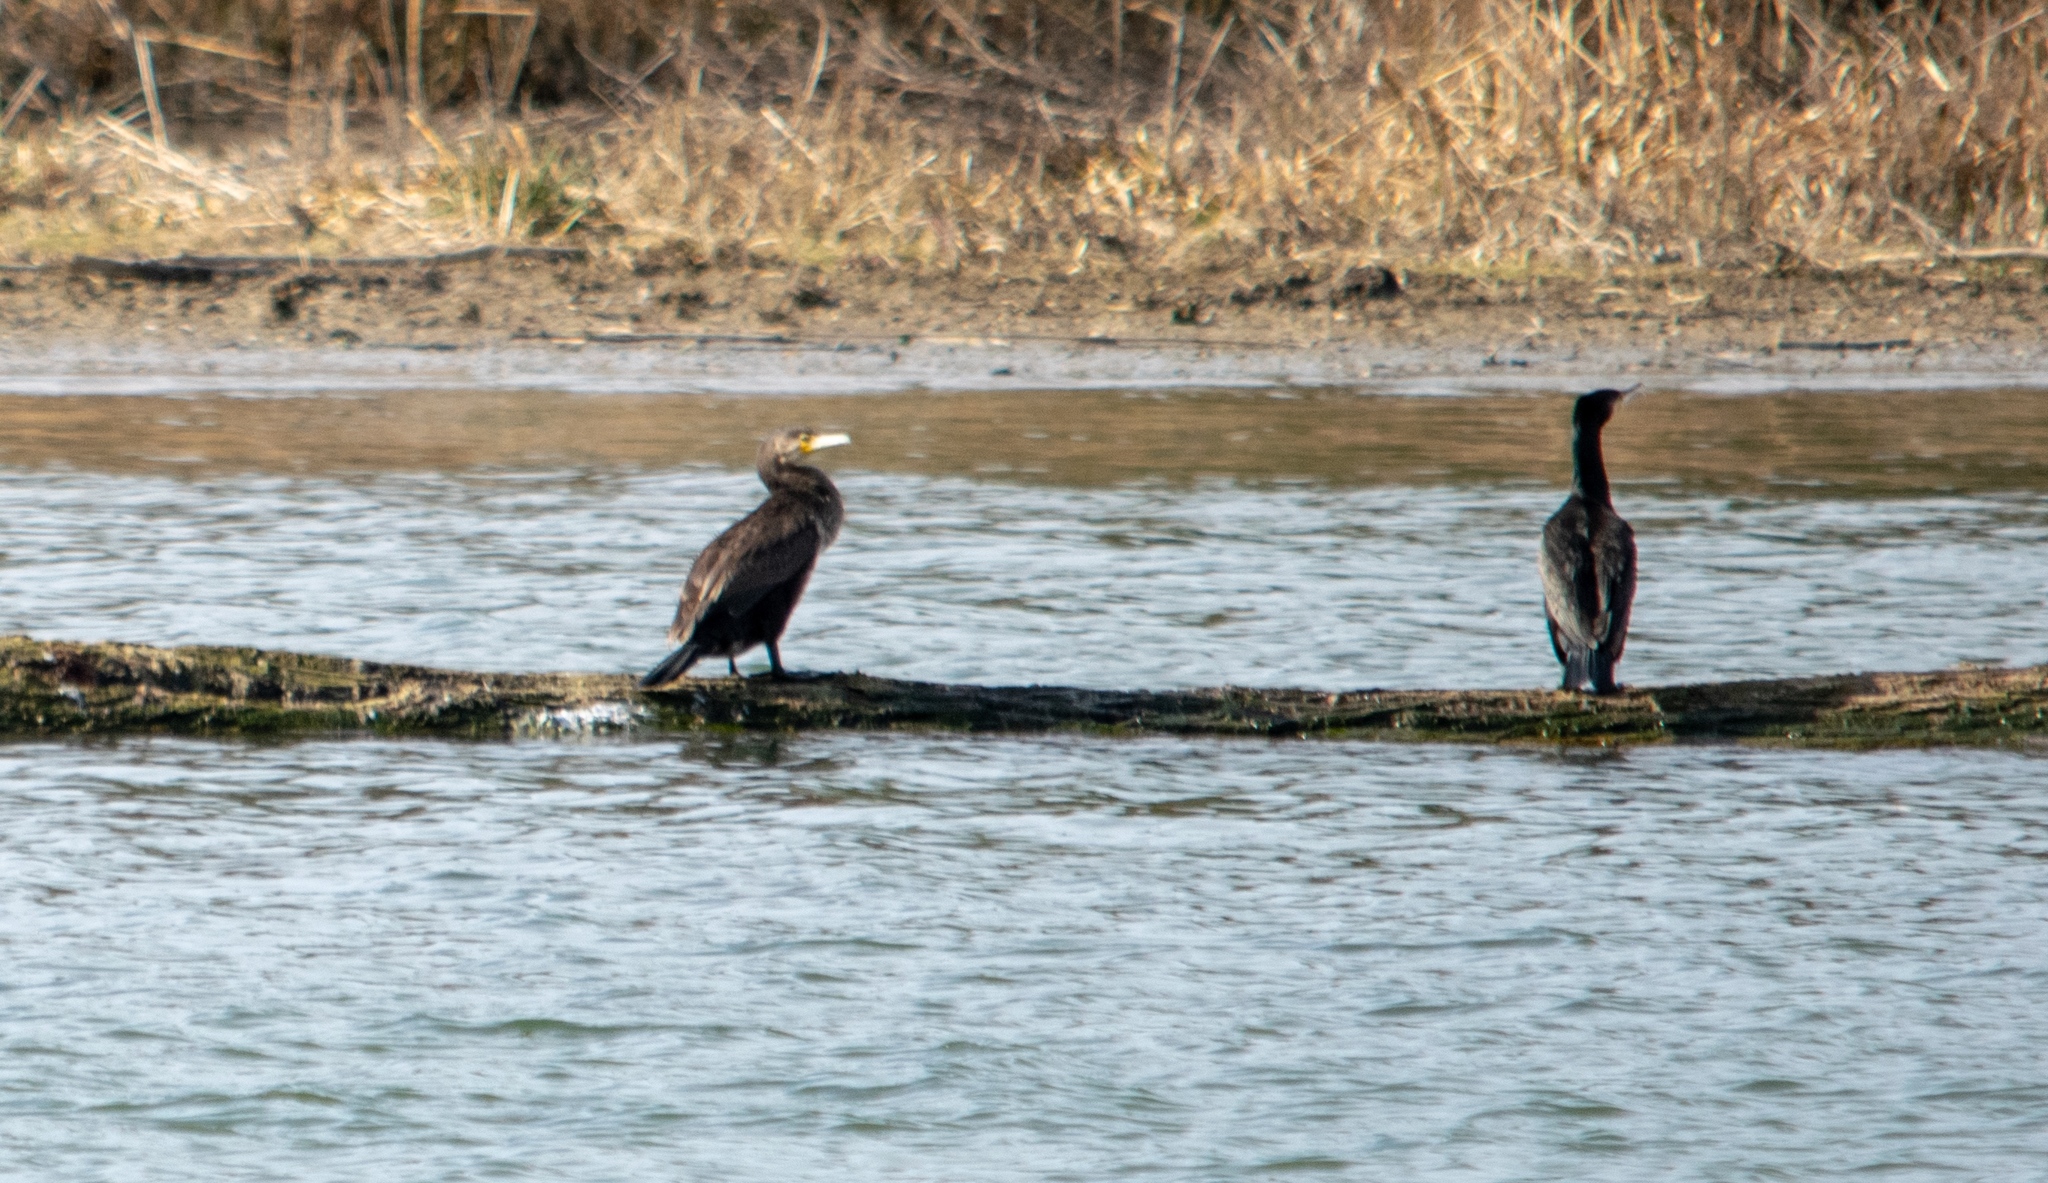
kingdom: Animalia
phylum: Chordata
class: Aves
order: Suliformes
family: Phalacrocoracidae
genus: Phalacrocorax
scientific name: Phalacrocorax carbo
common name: Great cormorant
